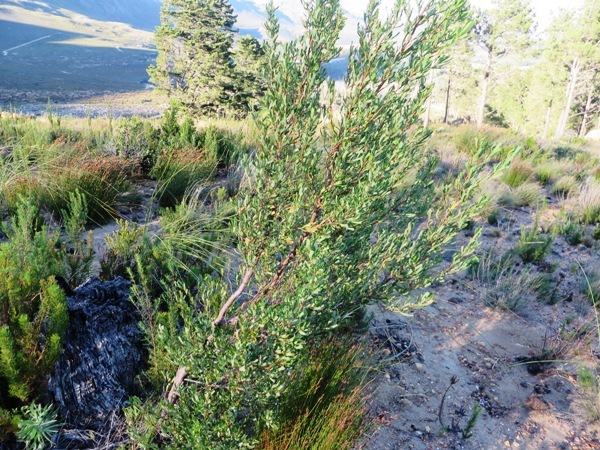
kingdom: Plantae
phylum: Tracheophyta
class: Magnoliopsida
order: Rosales
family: Rosaceae
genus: Cliffortia
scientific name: Cliffortia cuneata
